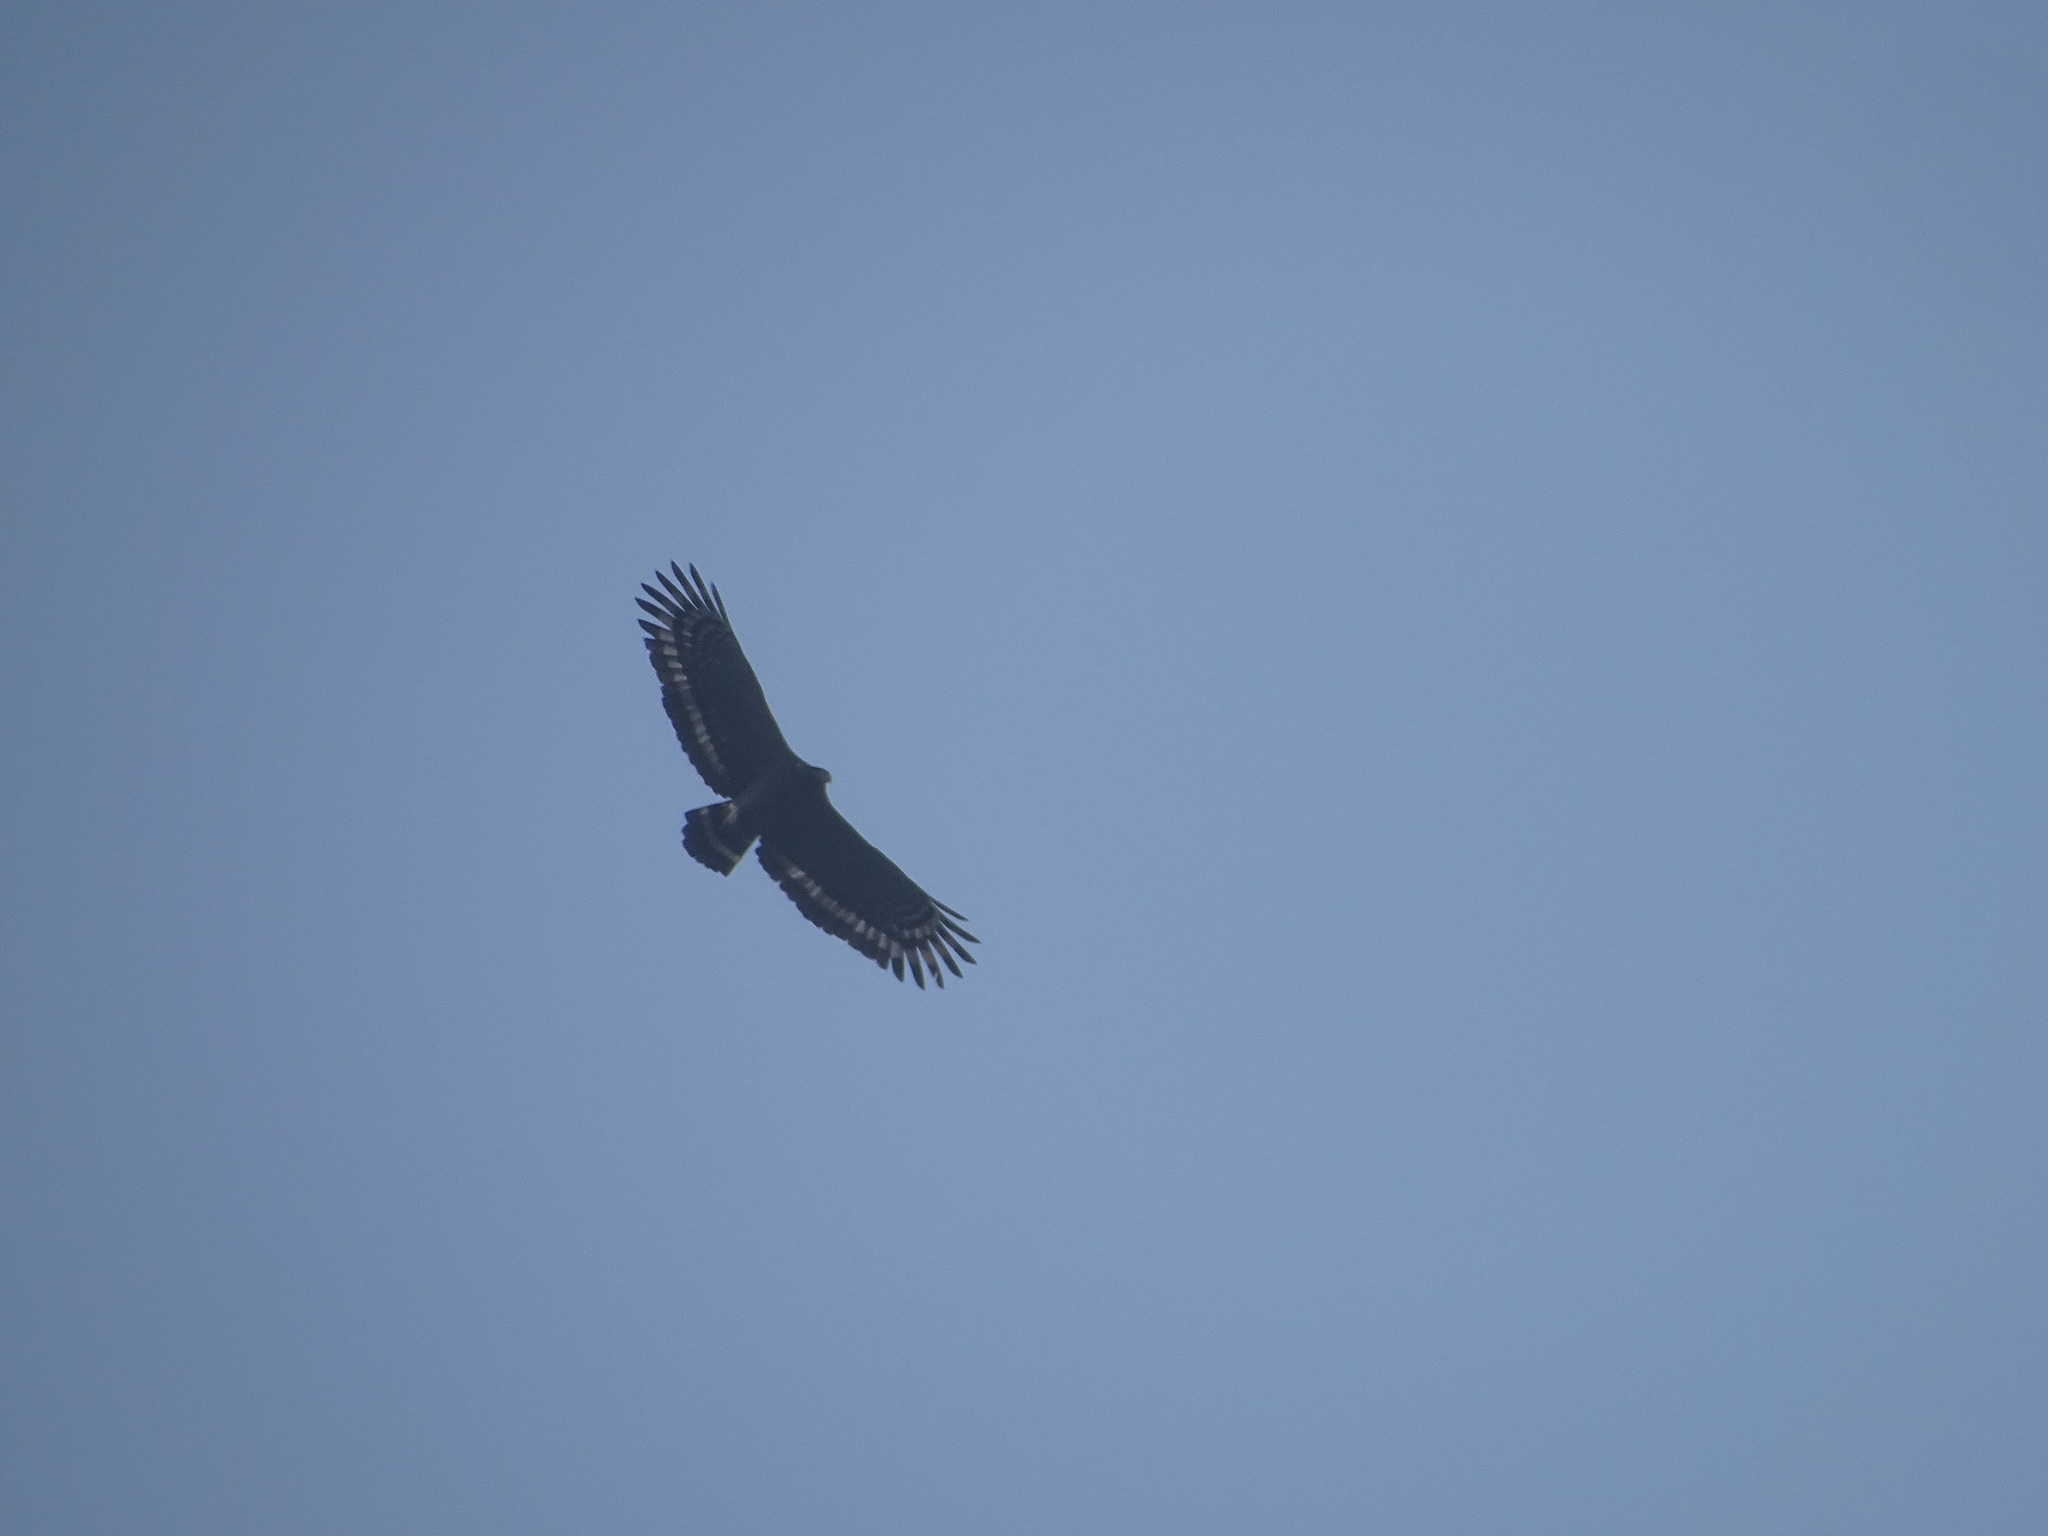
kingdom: Animalia
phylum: Chordata
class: Aves
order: Accipitriformes
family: Accipitridae
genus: Spilornis
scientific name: Spilornis cheela
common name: Crested serpent eagle
